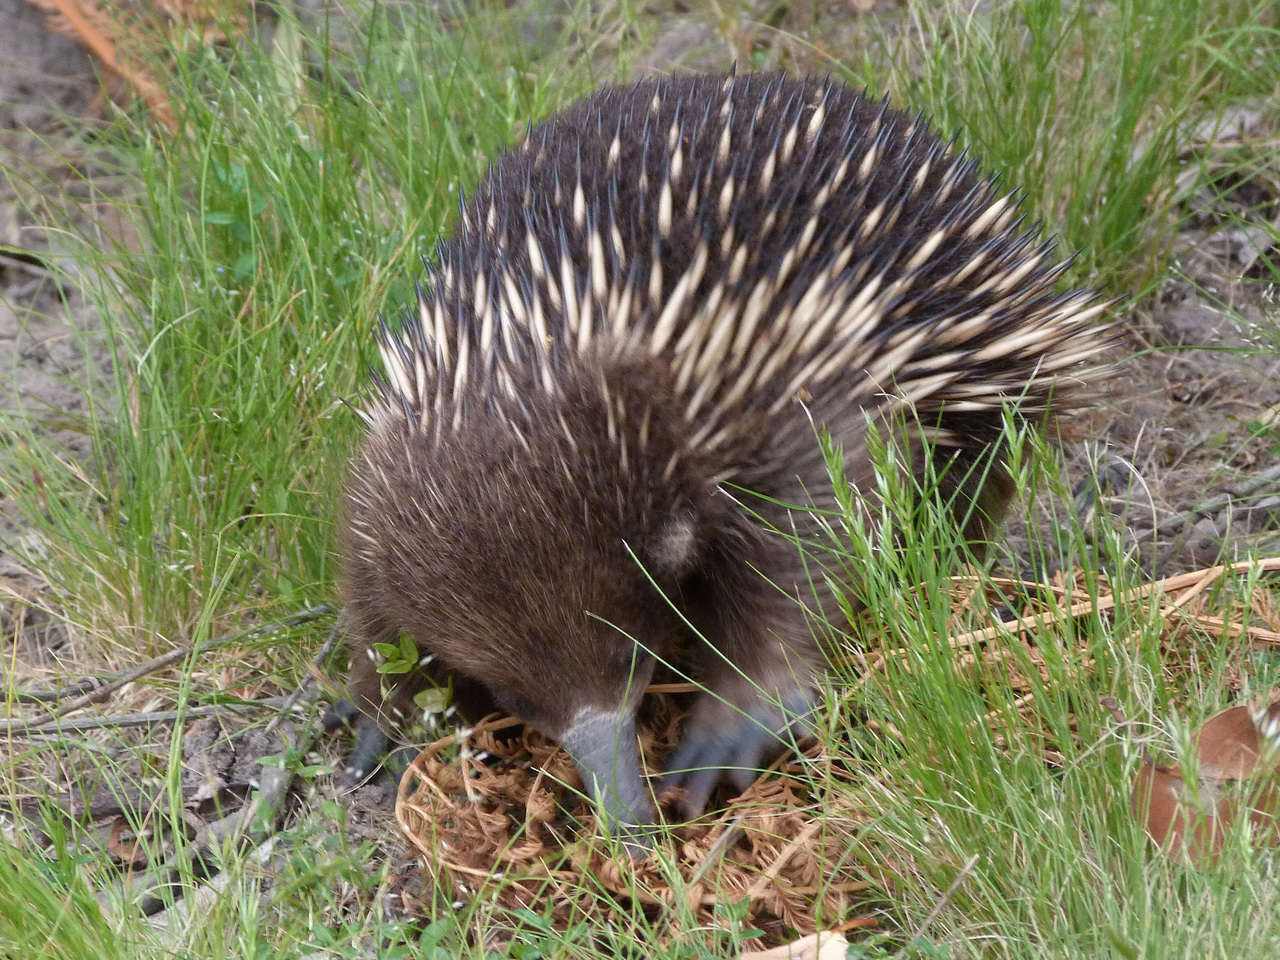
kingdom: Animalia
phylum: Chordata
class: Mammalia
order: Monotremata
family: Tachyglossidae
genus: Tachyglossus
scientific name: Tachyglossus aculeatus
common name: Short-beaked echidna
